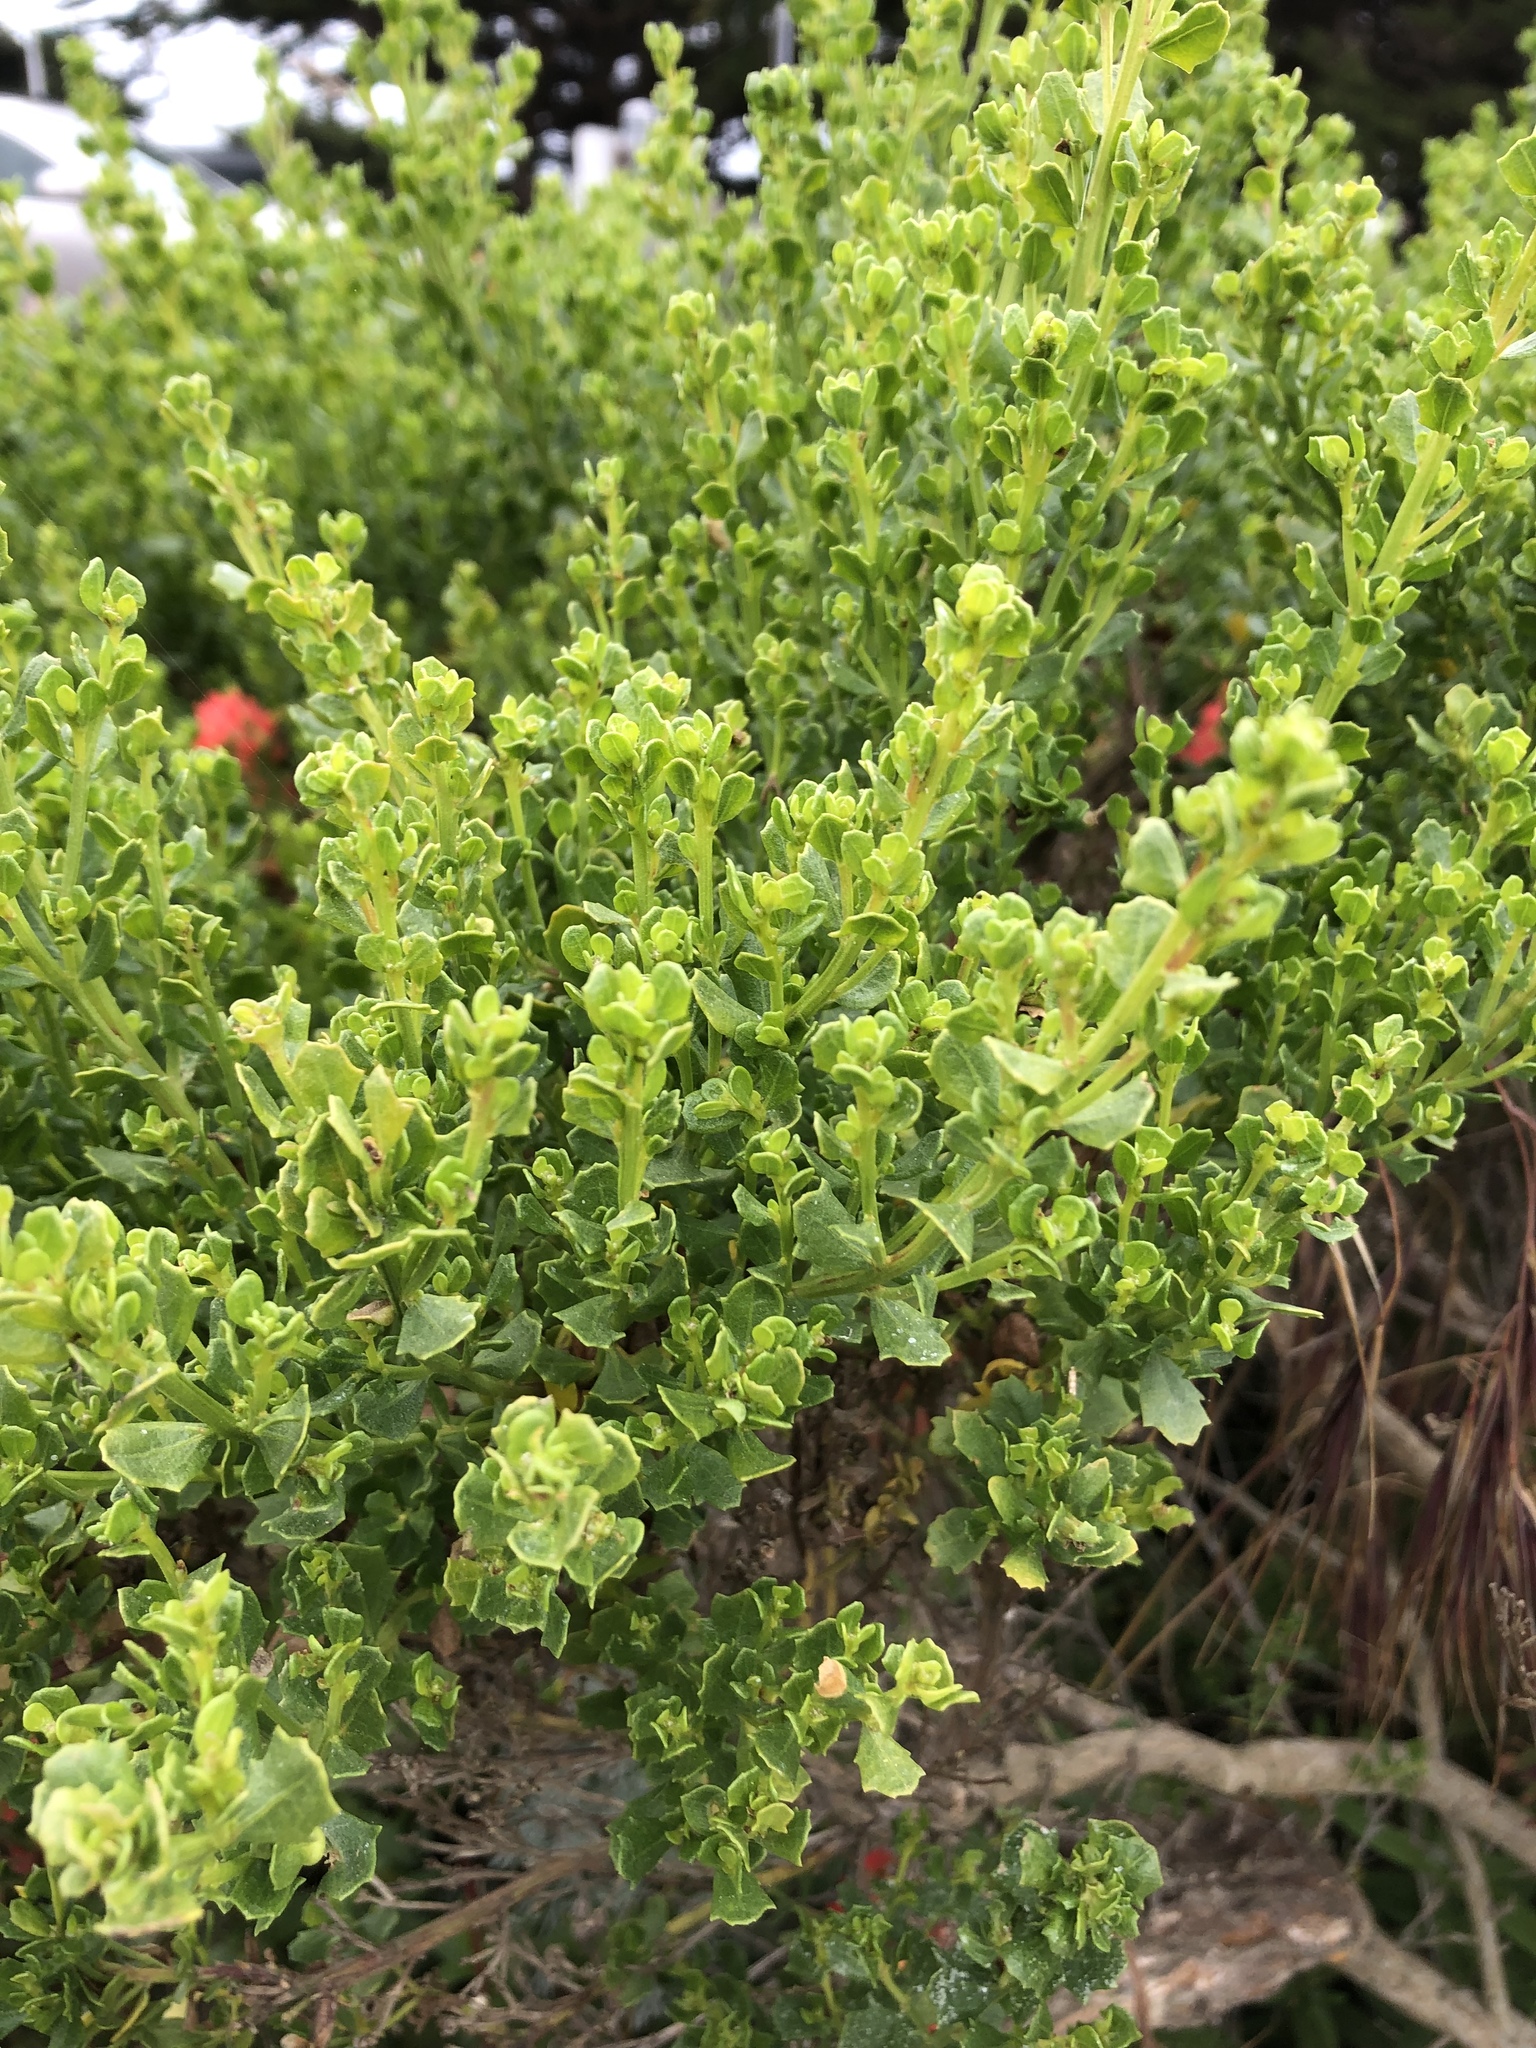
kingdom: Plantae
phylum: Tracheophyta
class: Magnoliopsida
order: Asterales
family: Asteraceae
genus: Baccharis
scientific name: Baccharis pilularis
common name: Coyotebrush
